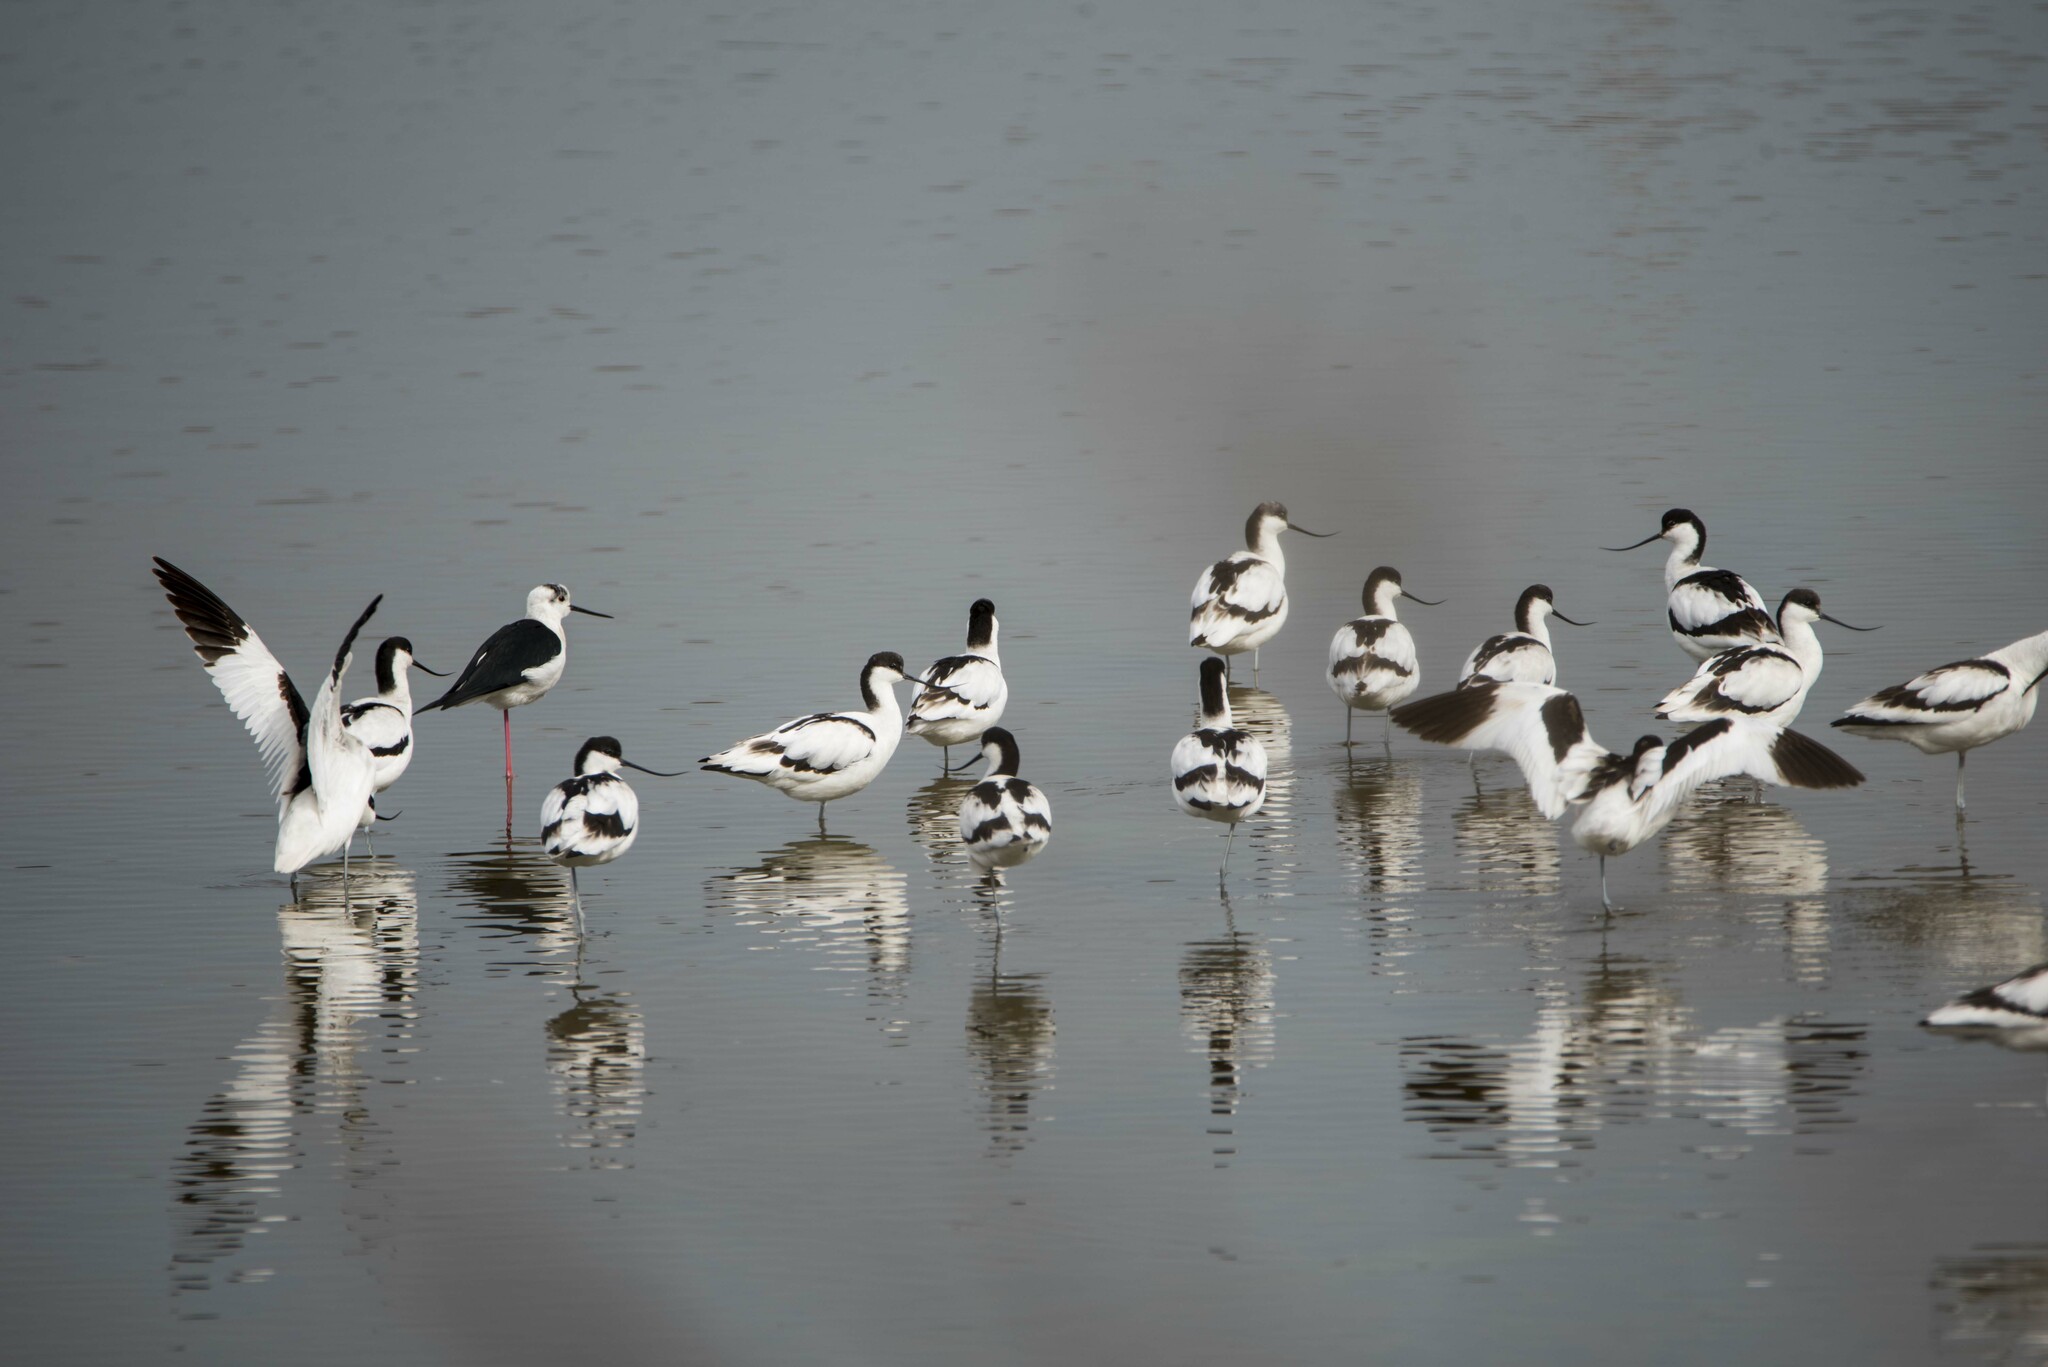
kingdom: Animalia
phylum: Chordata
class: Aves
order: Charadriiformes
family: Recurvirostridae
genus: Recurvirostra
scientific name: Recurvirostra avosetta
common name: Pied avocet
